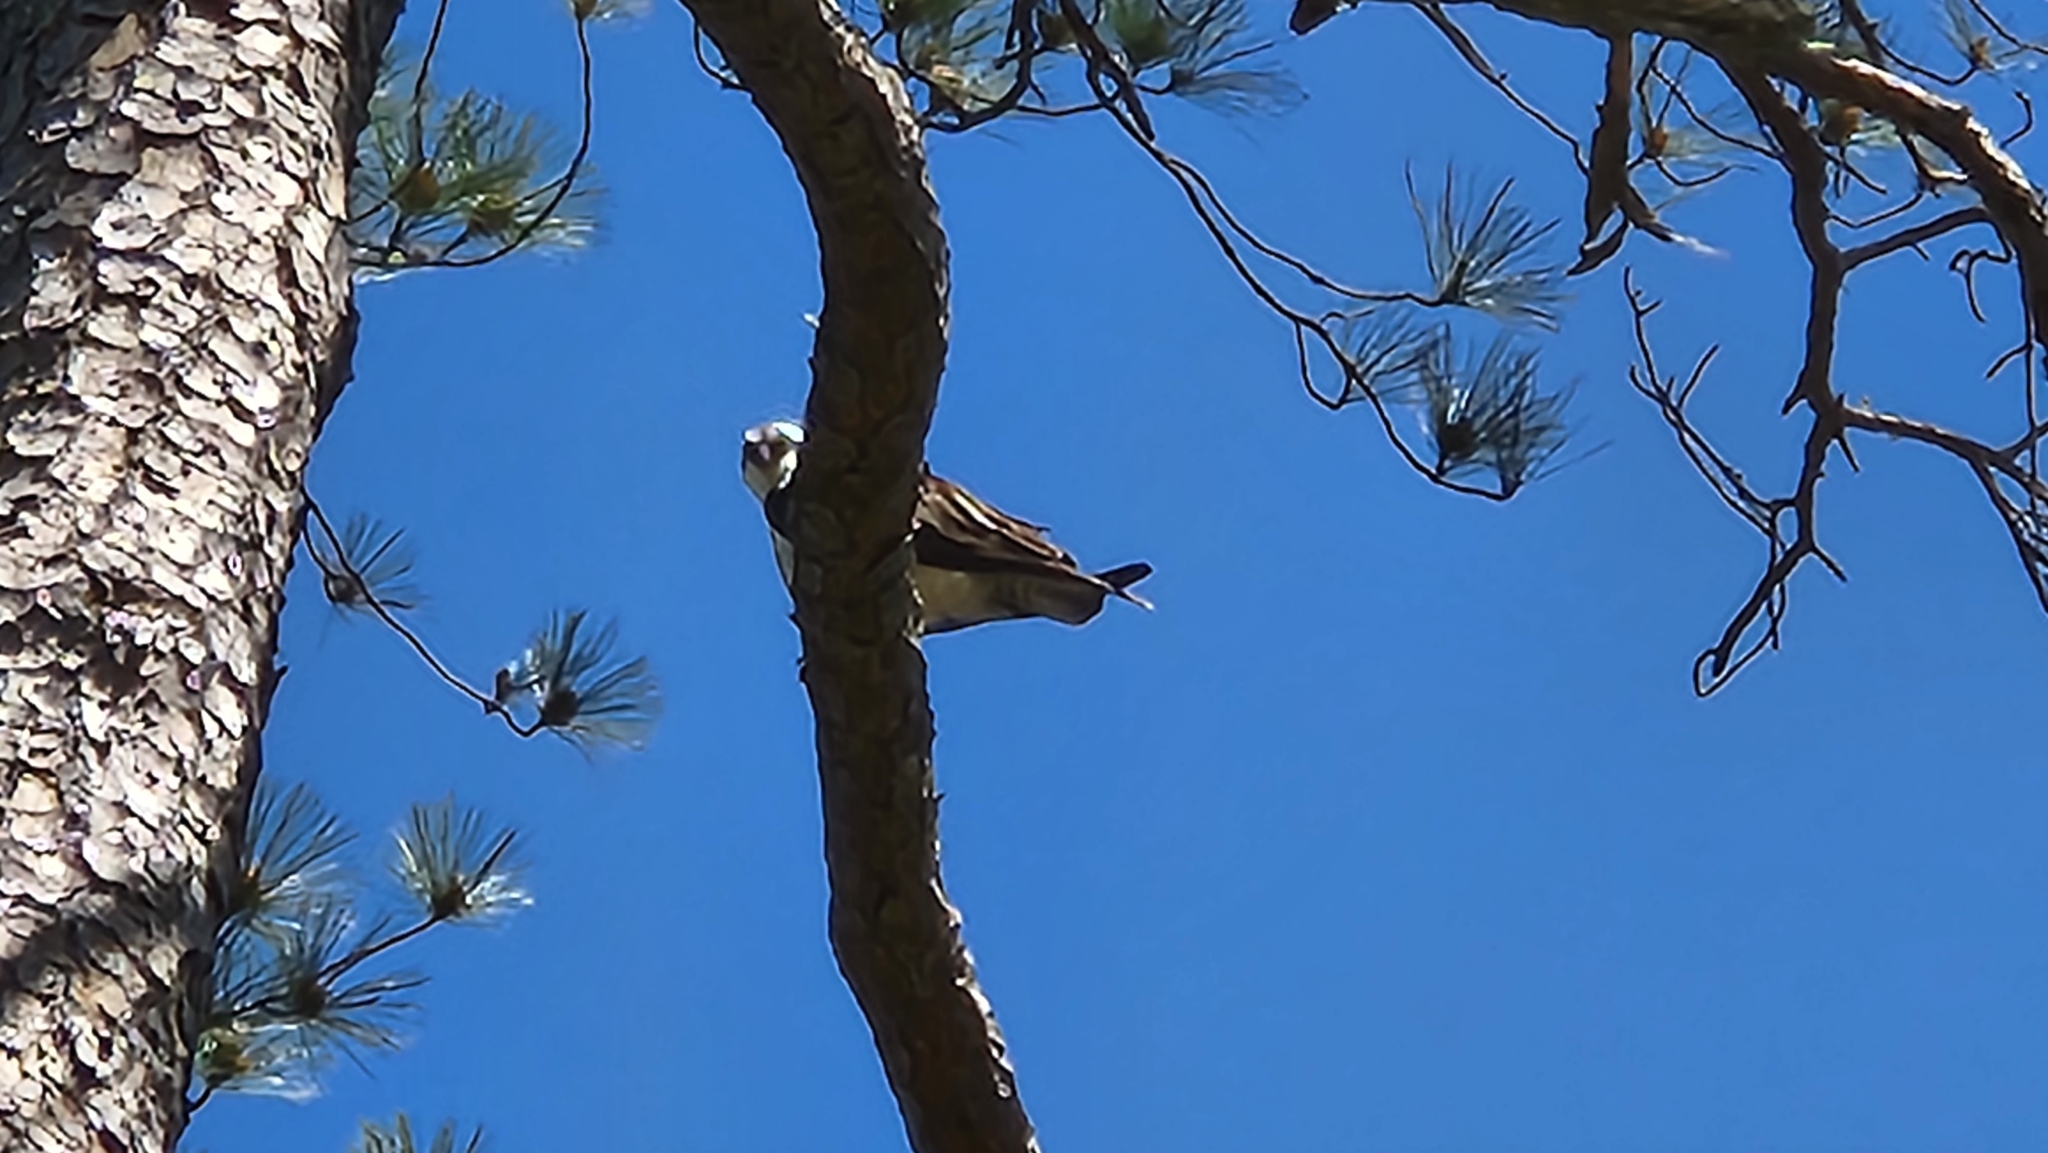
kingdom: Animalia
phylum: Chordata
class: Aves
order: Accipitriformes
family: Pandionidae
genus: Pandion
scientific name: Pandion haliaetus
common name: Osprey
